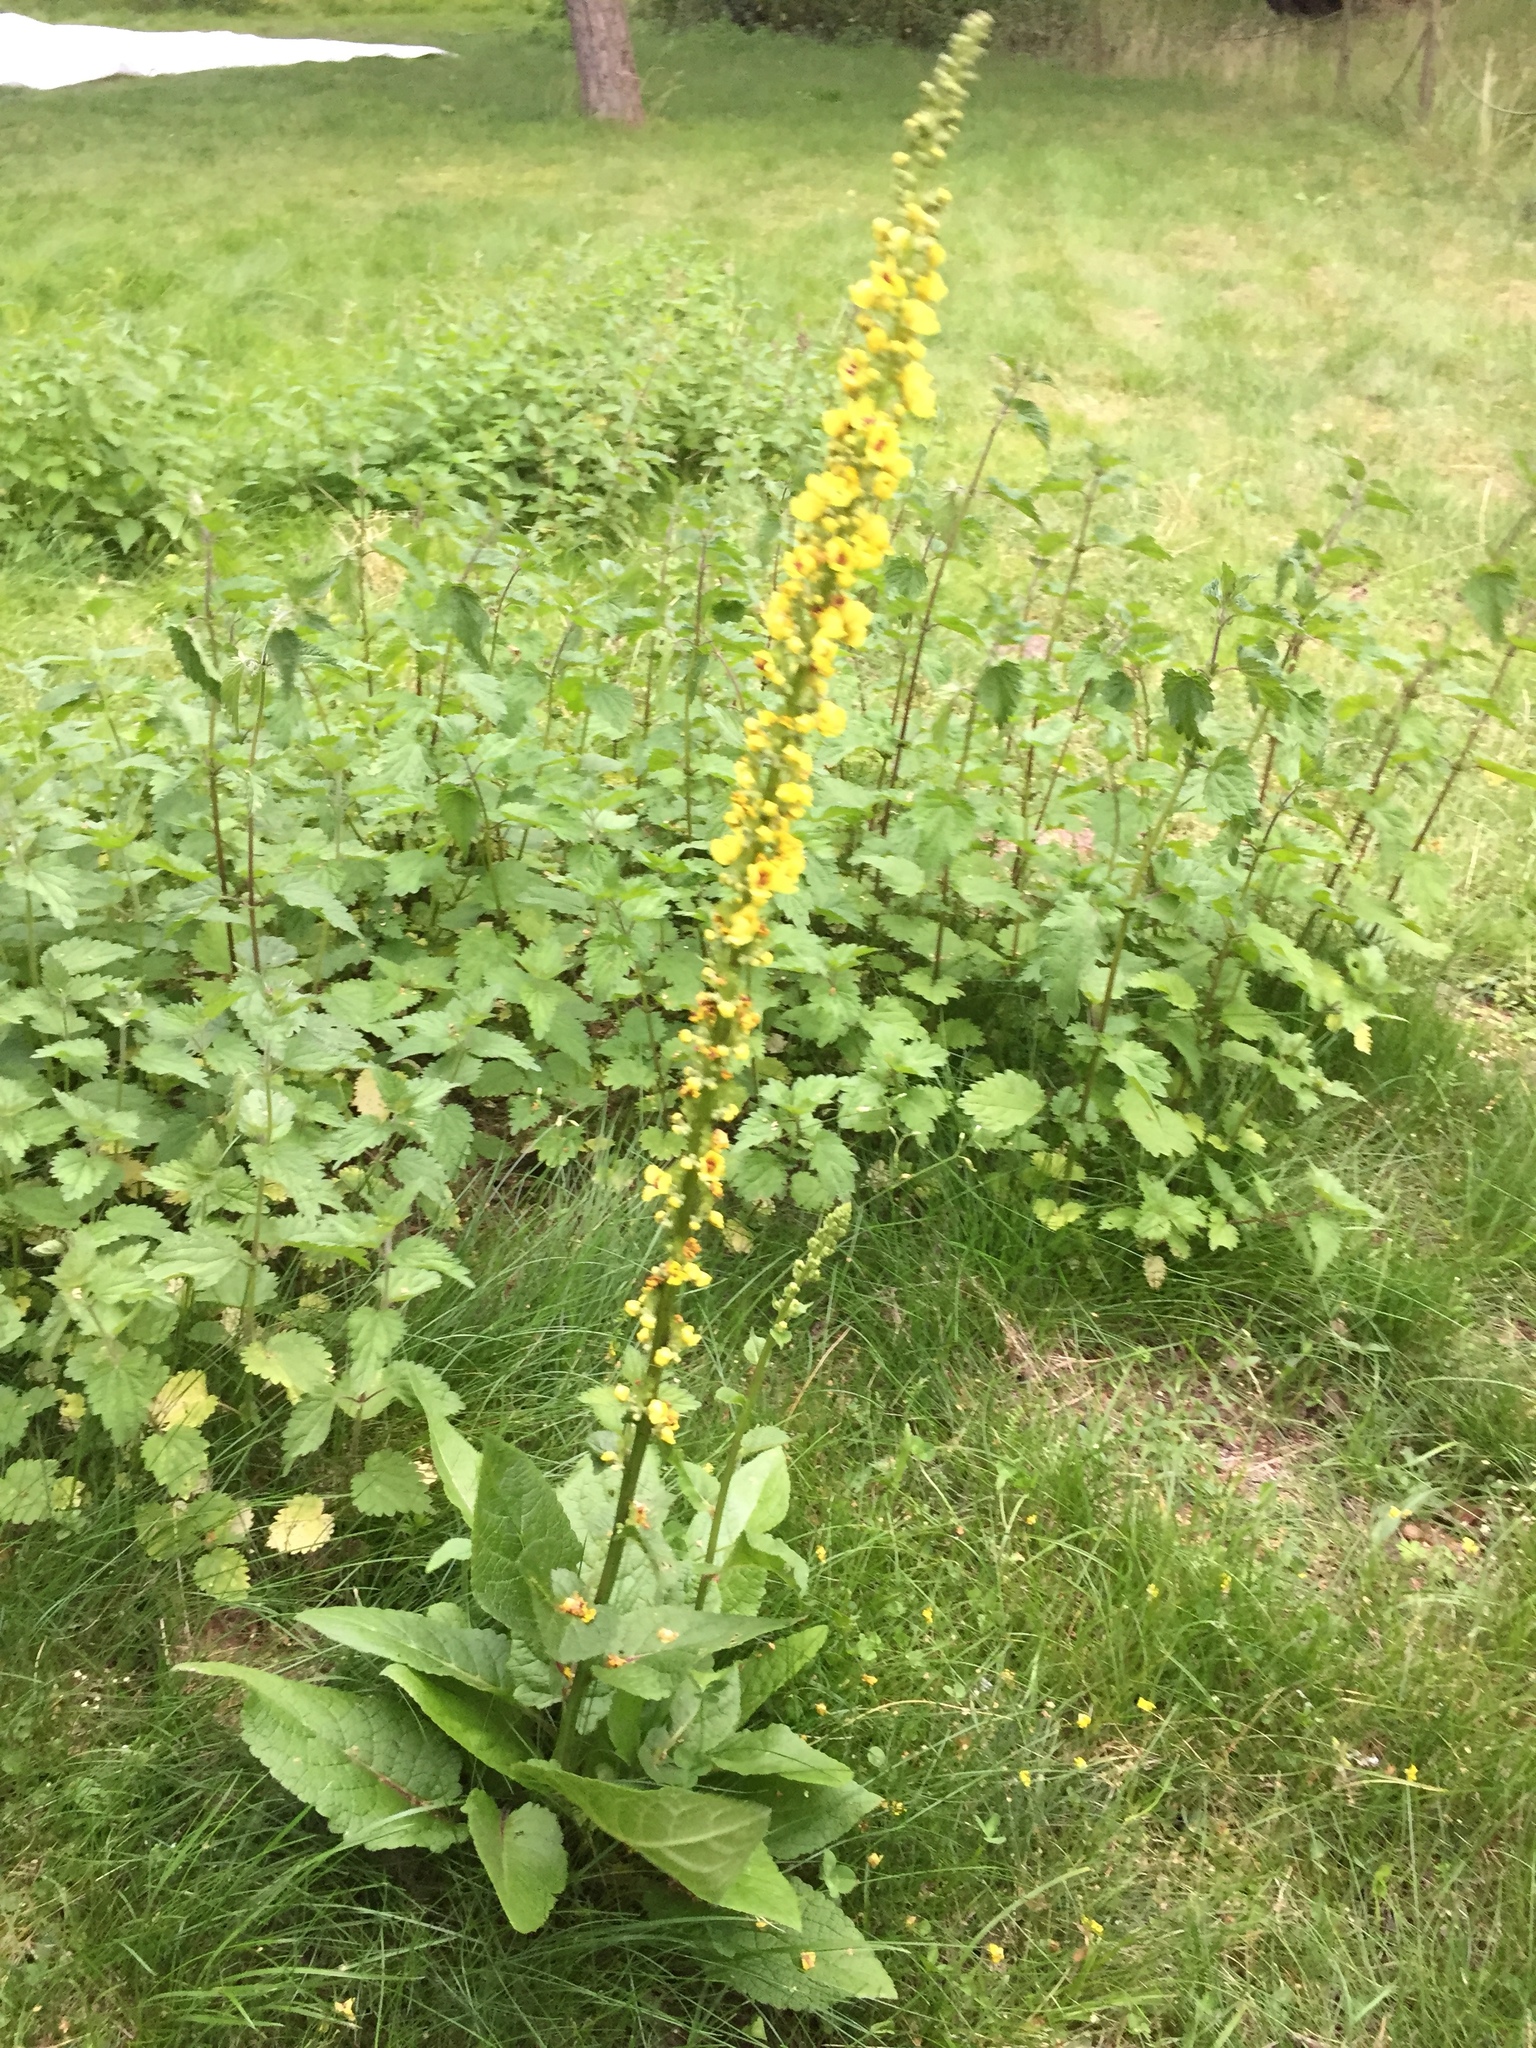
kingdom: Plantae
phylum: Tracheophyta
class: Magnoliopsida
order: Lamiales
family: Scrophulariaceae
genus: Verbascum
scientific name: Verbascum nigrum
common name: Dark mullein
